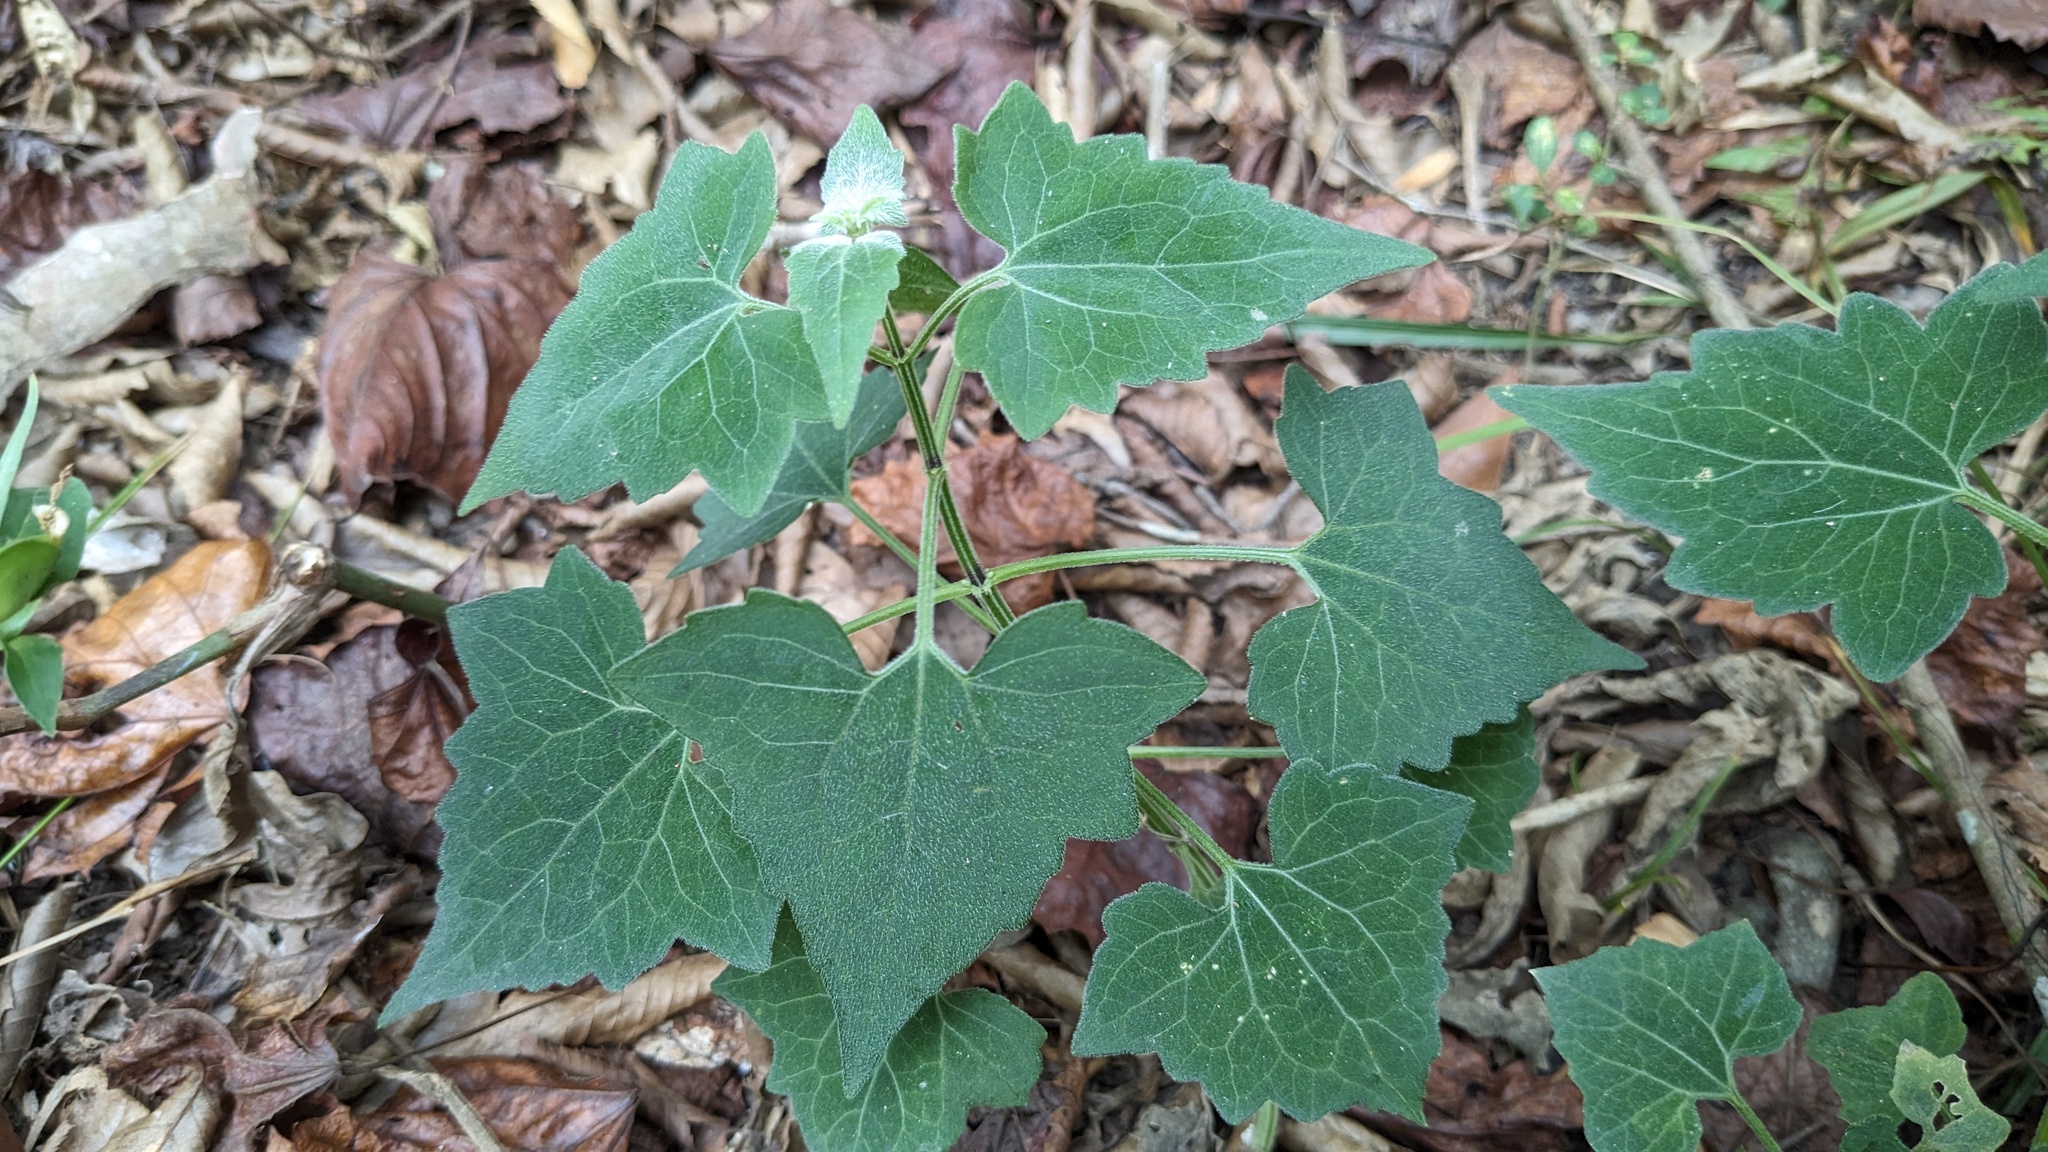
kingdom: Plantae
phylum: Tracheophyta
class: Magnoliopsida
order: Asterales
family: Asteraceae
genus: Mikania
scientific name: Mikania cordifolia
